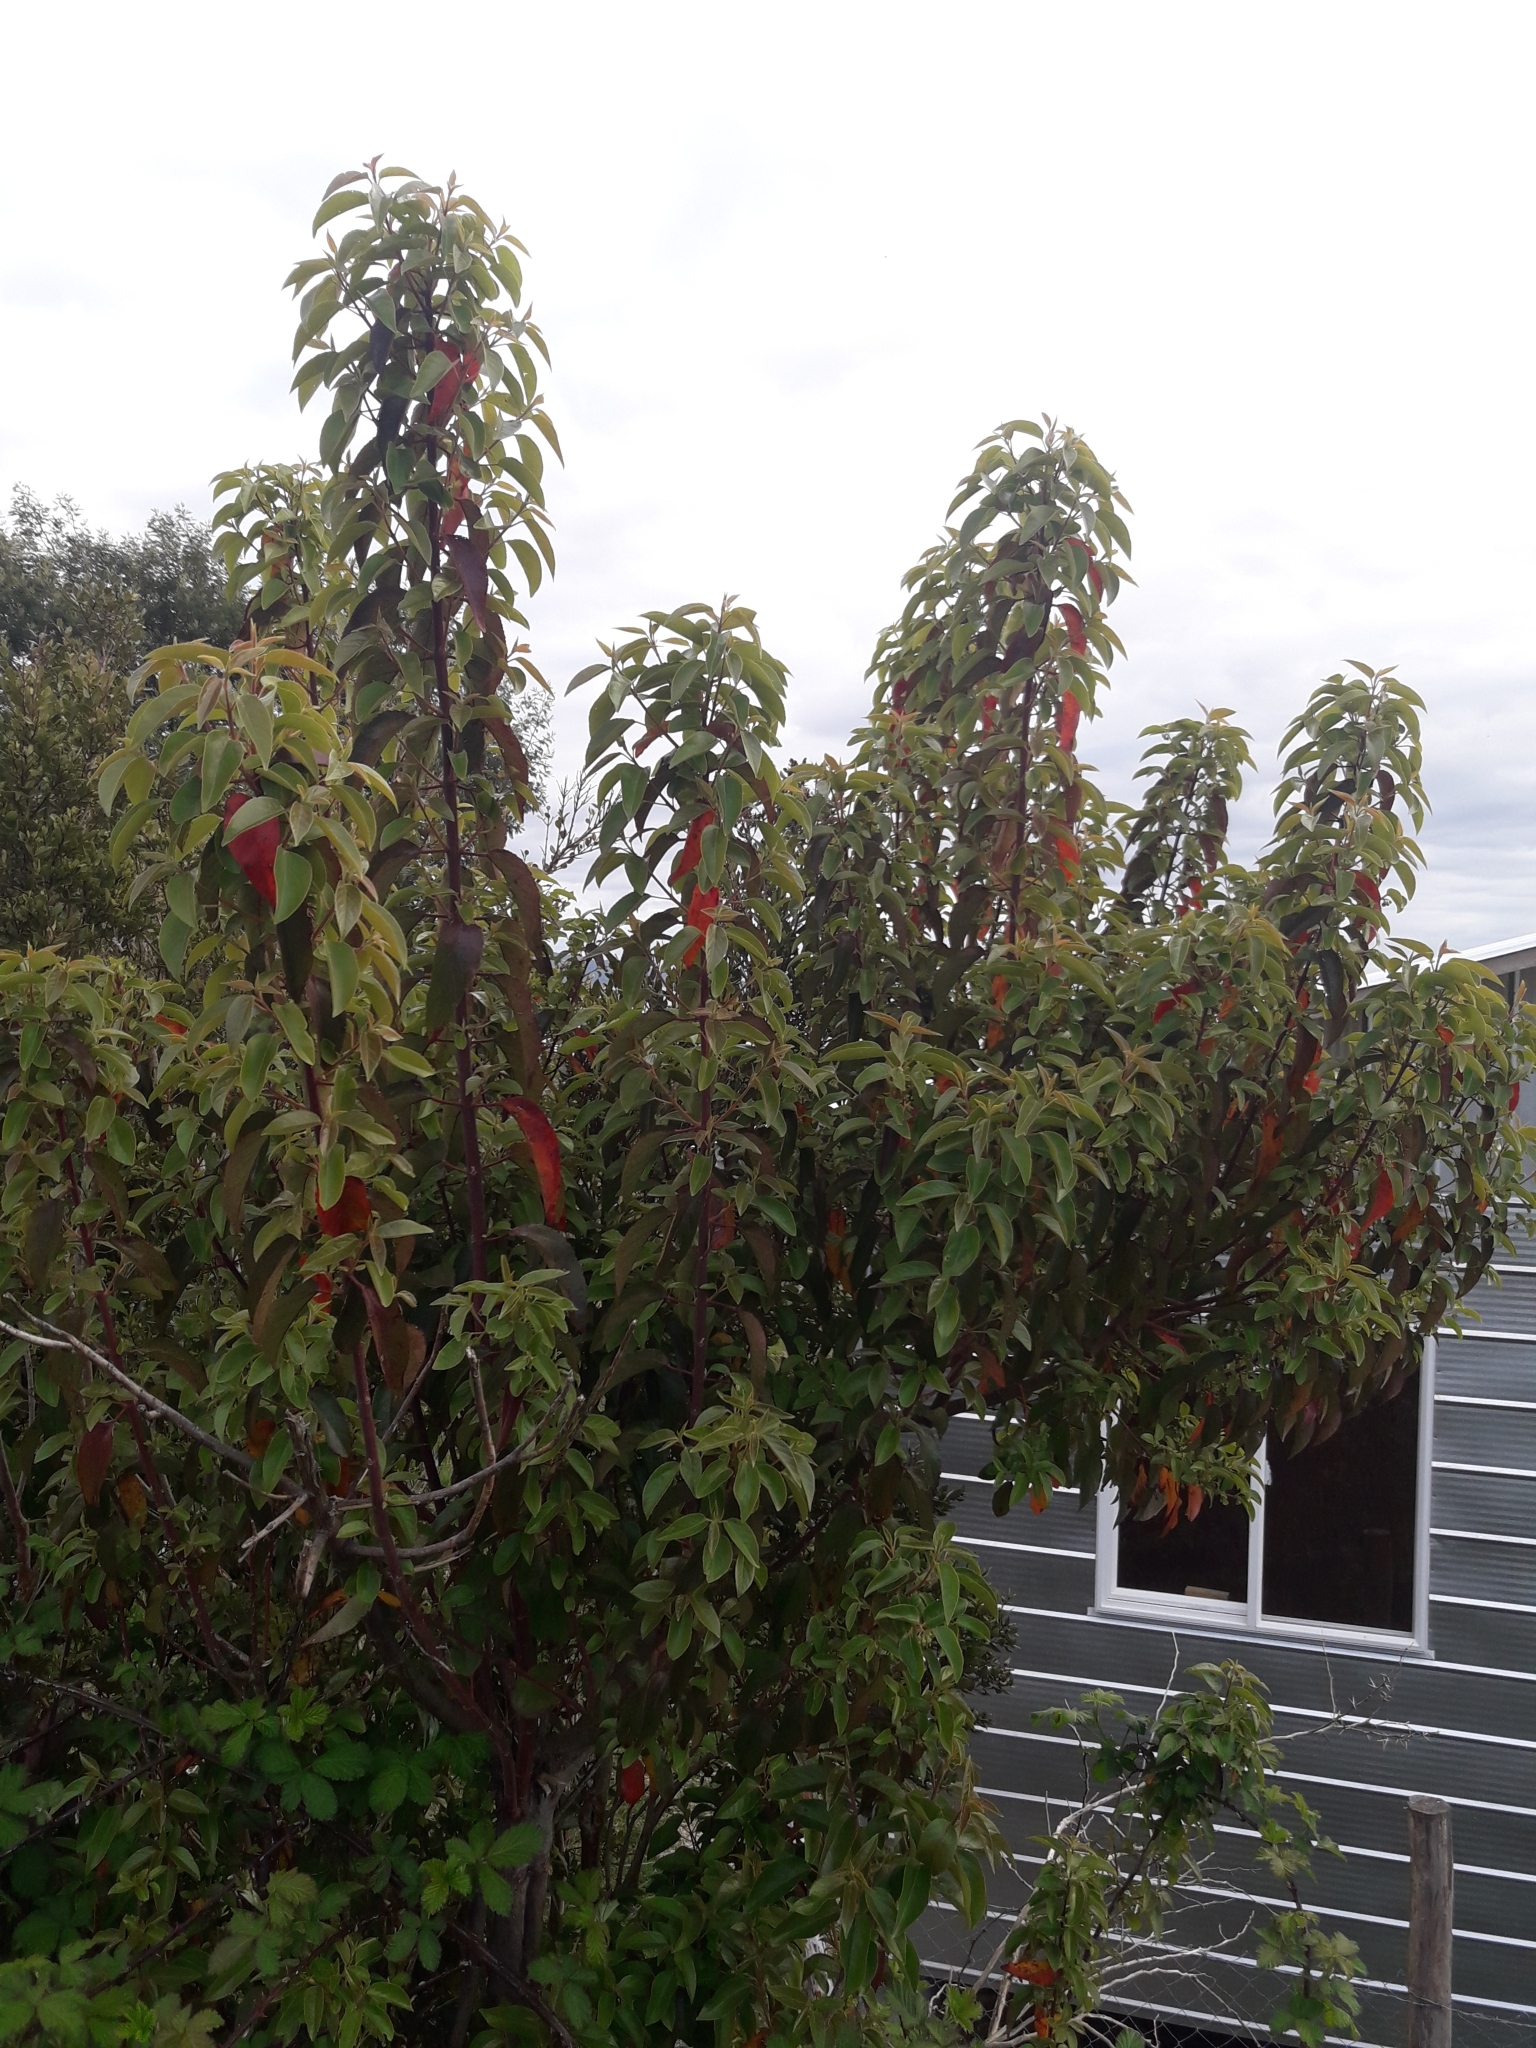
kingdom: Plantae
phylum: Tracheophyta
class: Magnoliopsida
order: Oxalidales
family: Elaeocarpaceae
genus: Aristotelia
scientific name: Aristotelia chilensis
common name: Maquei
